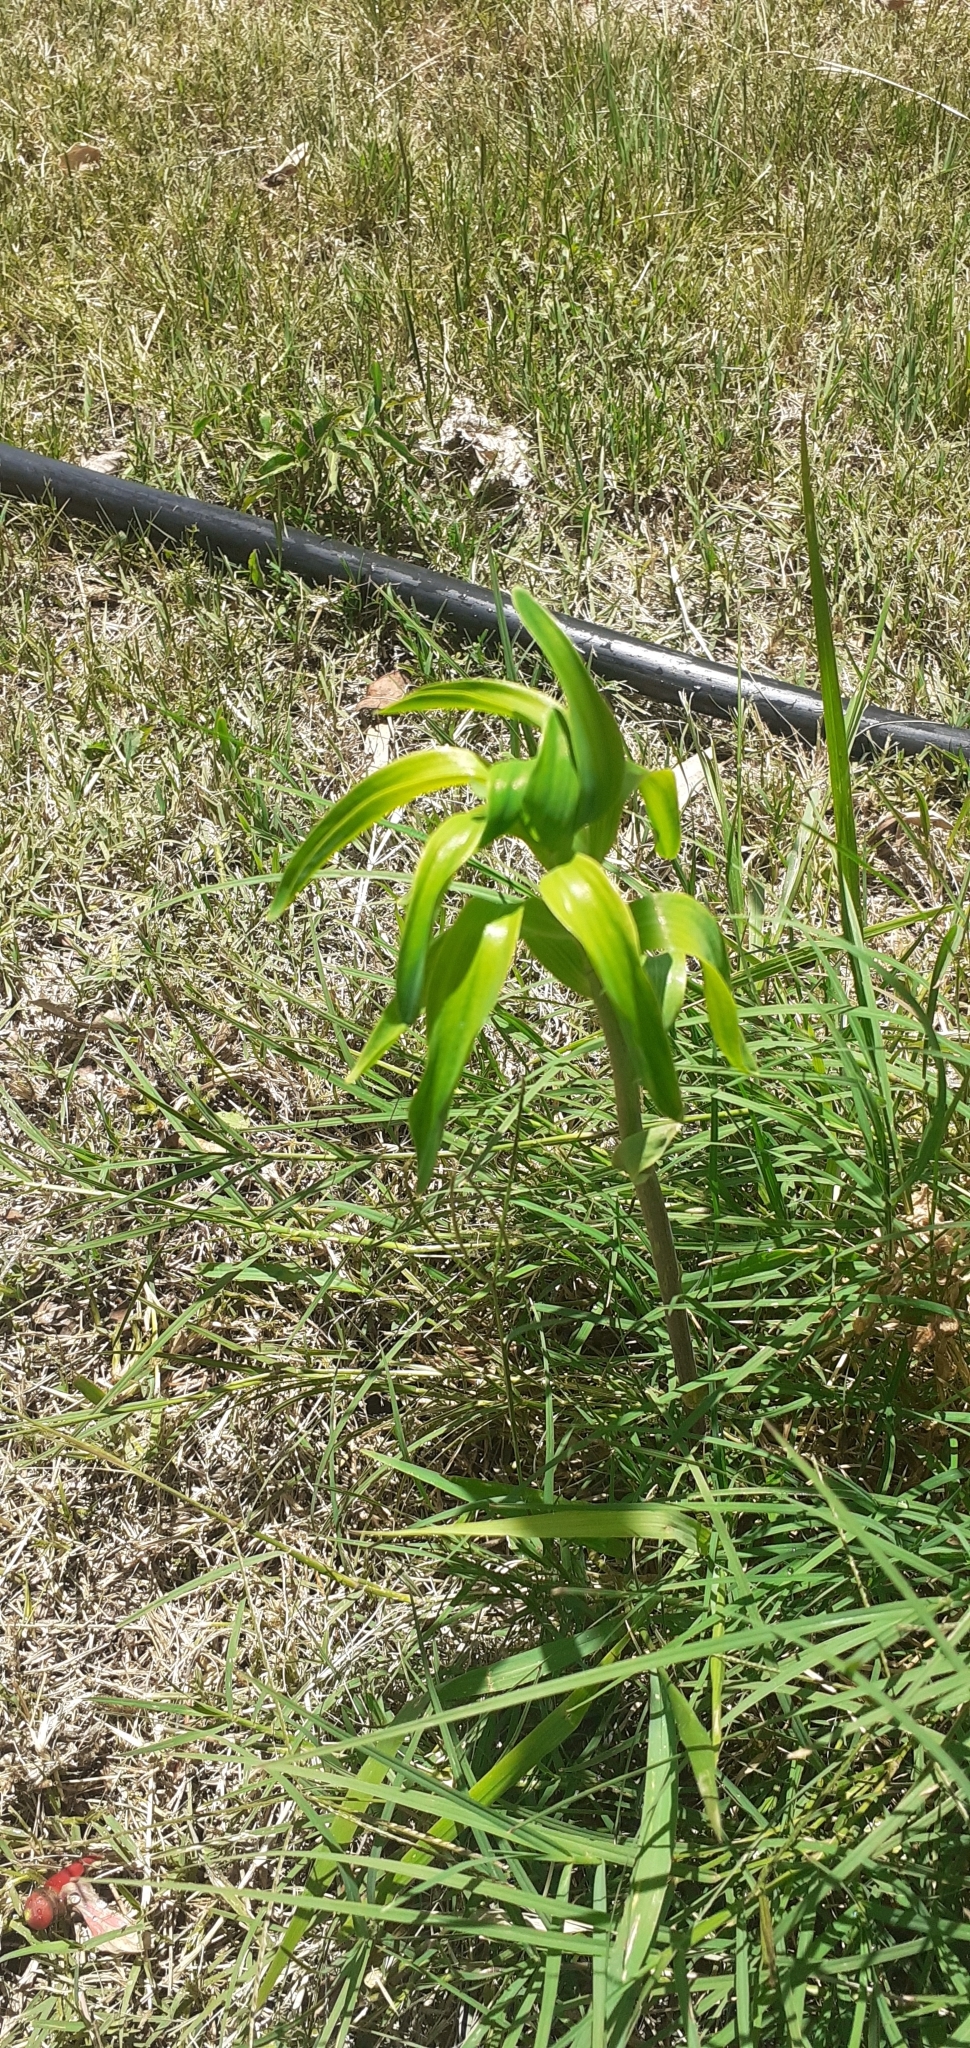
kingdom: Plantae
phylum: Tracheophyta
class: Liliopsida
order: Liliales
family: Alstroemeriaceae
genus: Alstroemeria
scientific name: Alstroemeria psittacina
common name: Peruvian-lily
